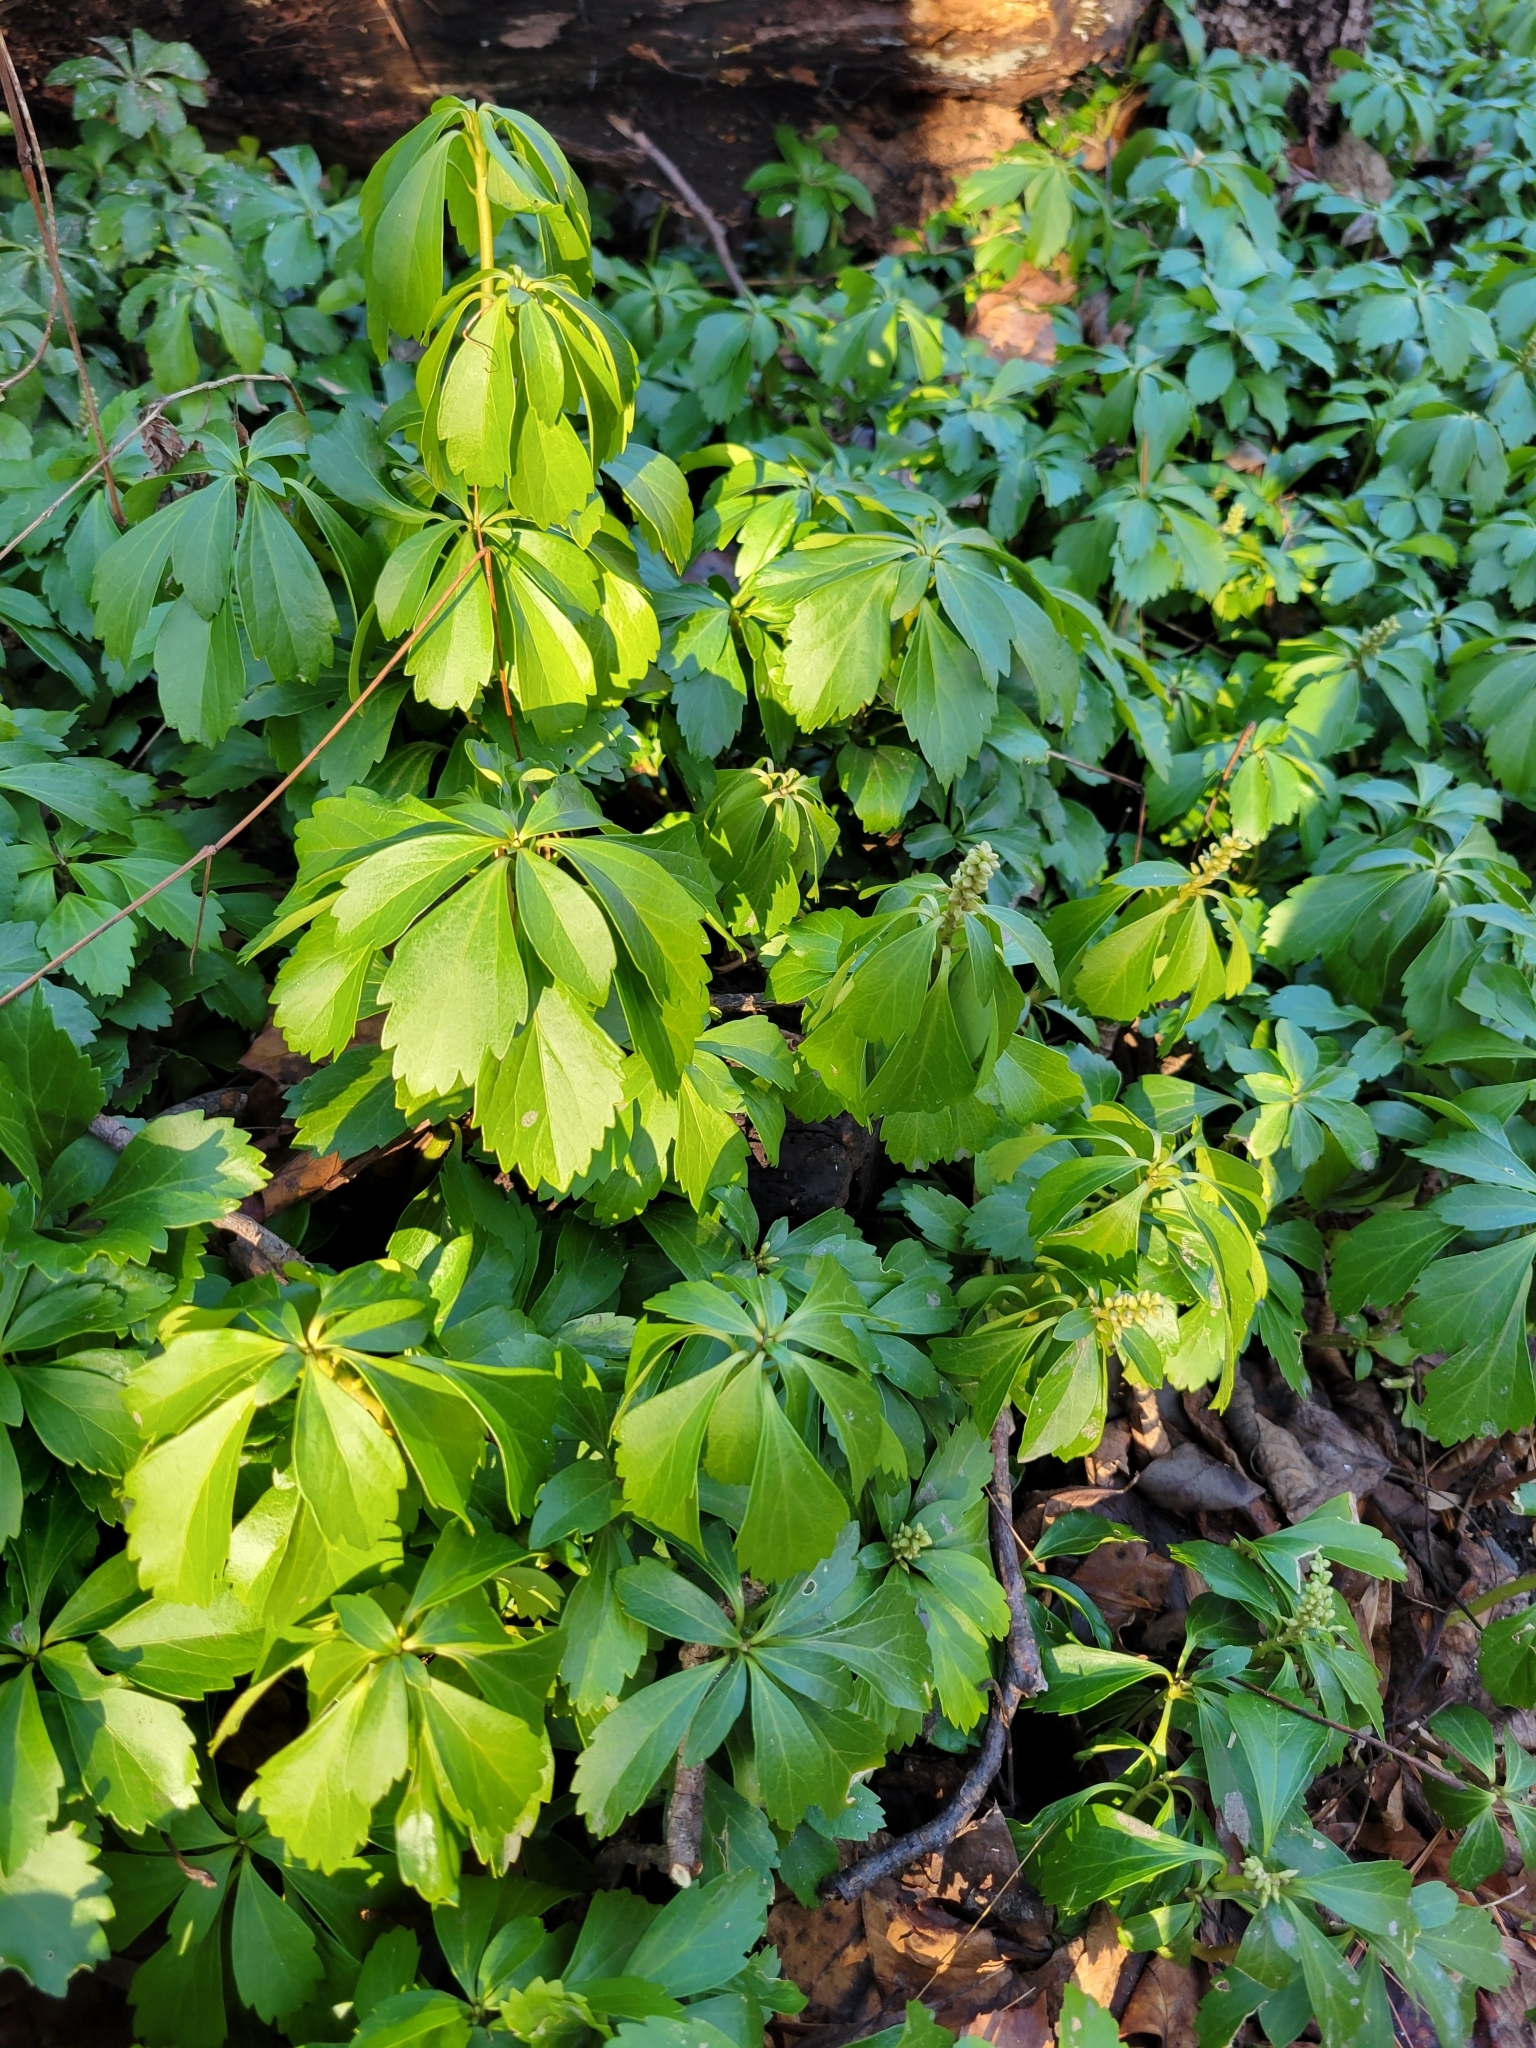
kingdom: Plantae
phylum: Tracheophyta
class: Magnoliopsida
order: Buxales
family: Buxaceae
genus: Pachysandra
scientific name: Pachysandra terminalis
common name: Japanese pachysandra
